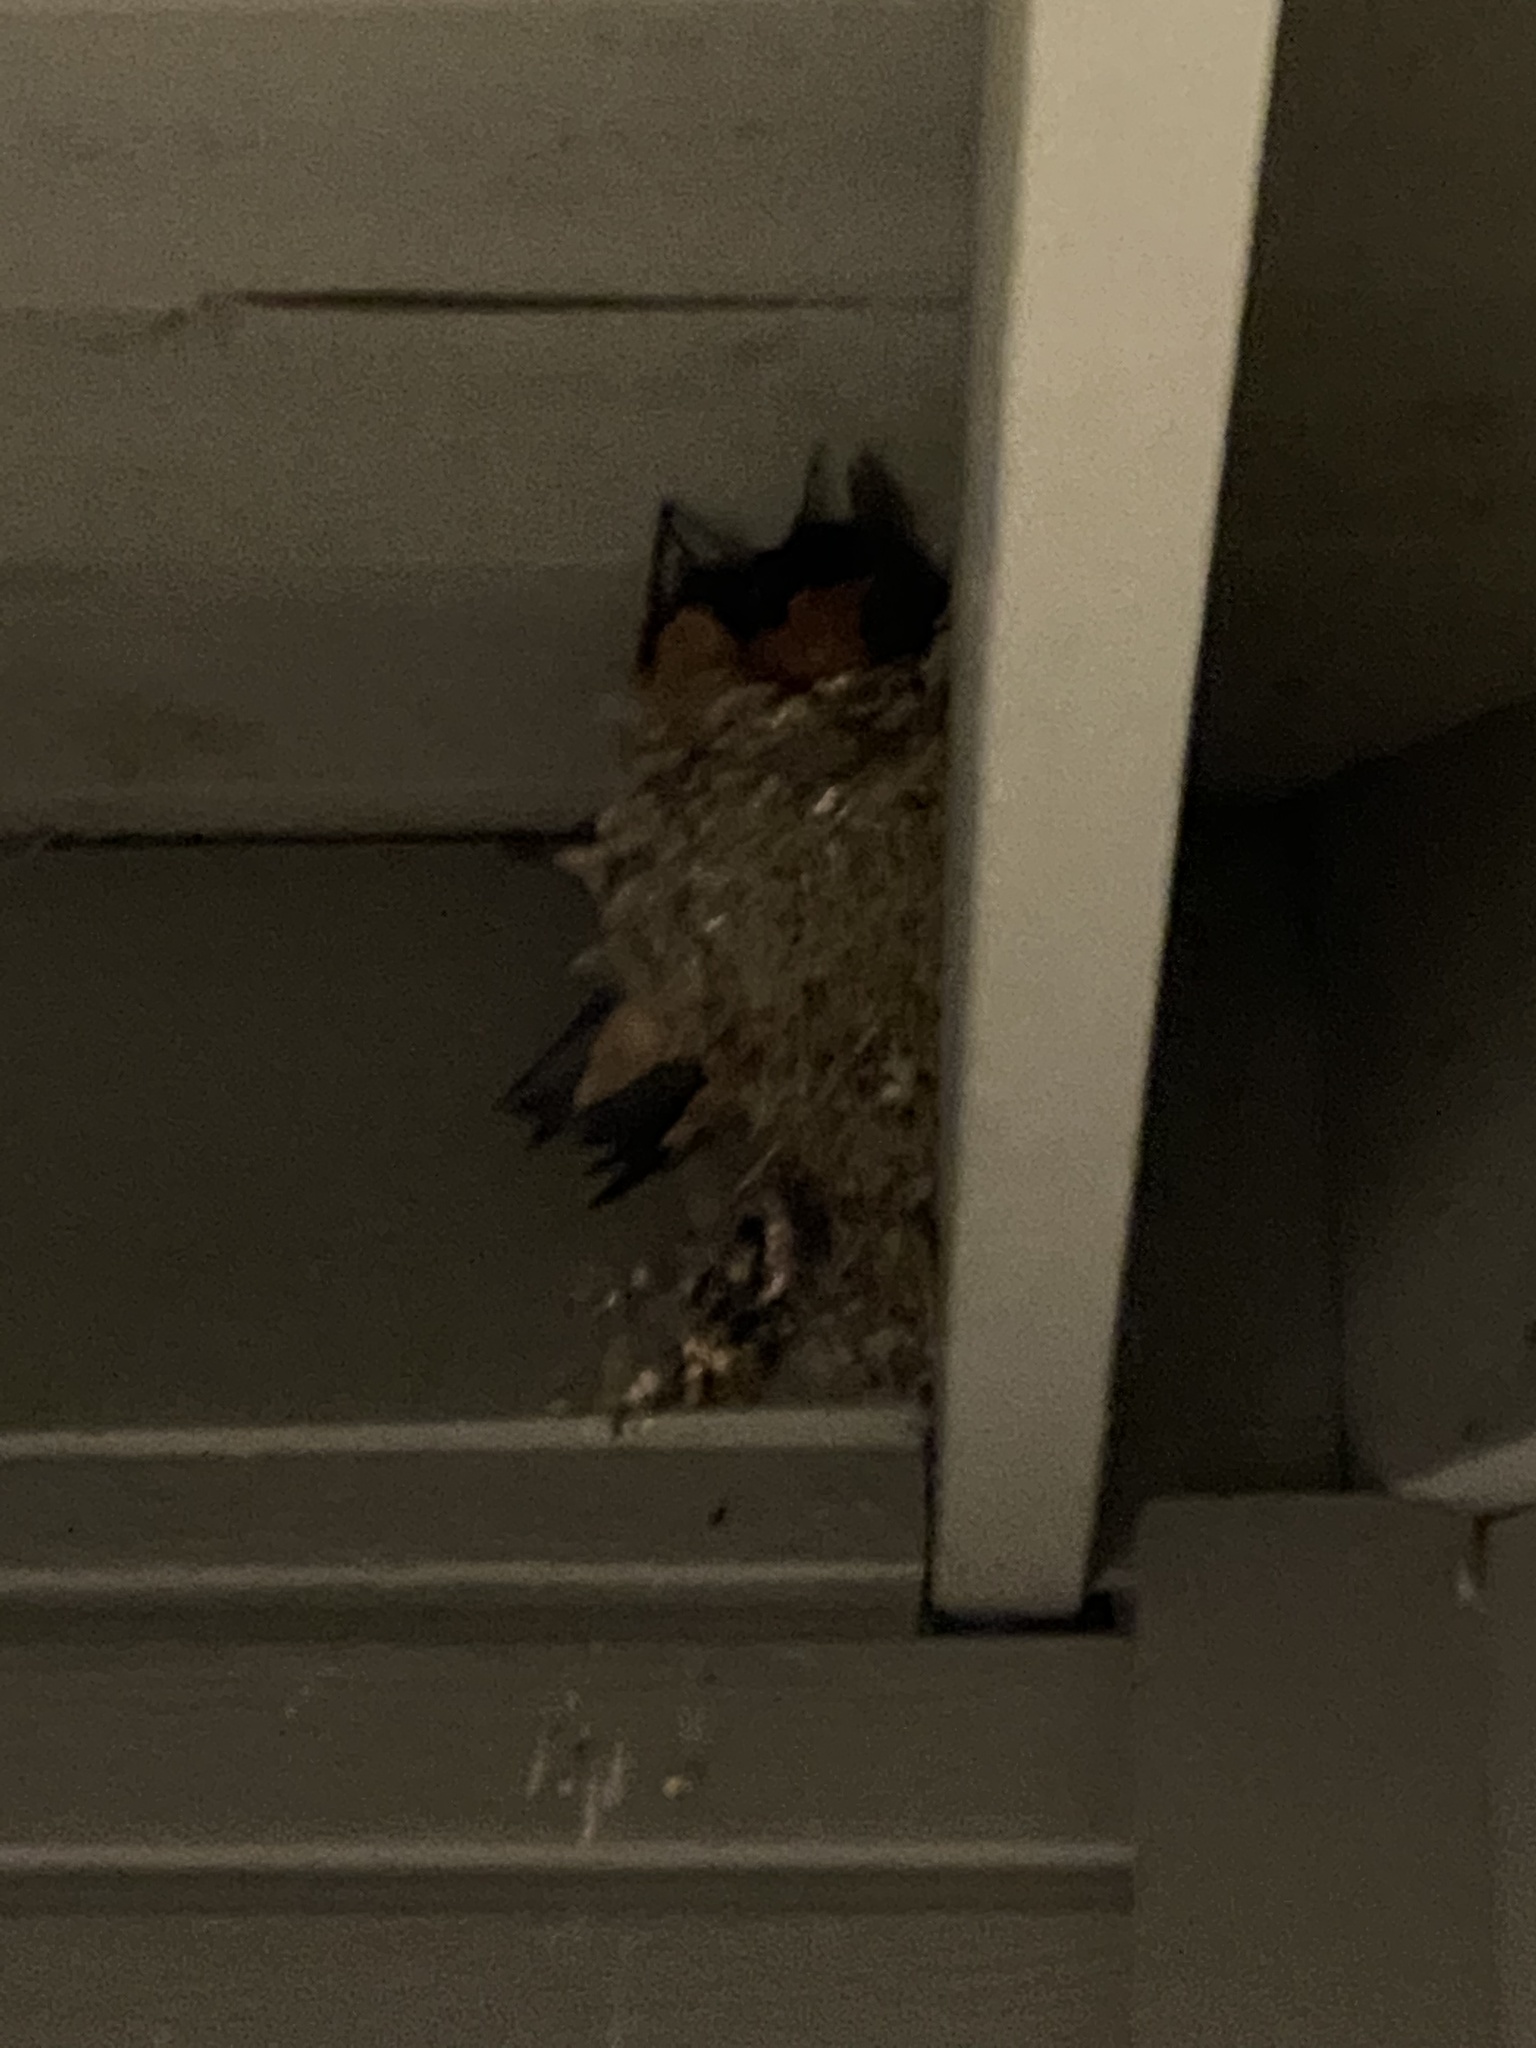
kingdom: Animalia
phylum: Chordata
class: Aves
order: Passeriformes
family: Hirundinidae
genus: Hirundo
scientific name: Hirundo rustica
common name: Barn swallow
